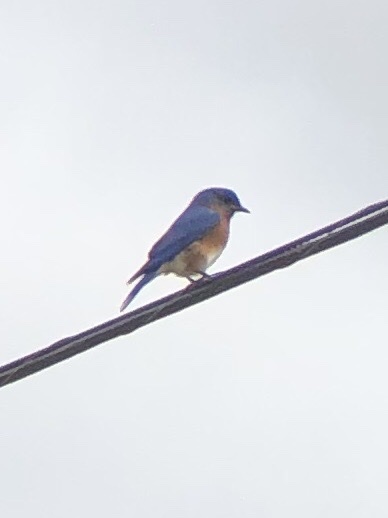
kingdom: Animalia
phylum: Chordata
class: Aves
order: Passeriformes
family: Turdidae
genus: Sialia
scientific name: Sialia sialis
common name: Eastern bluebird
